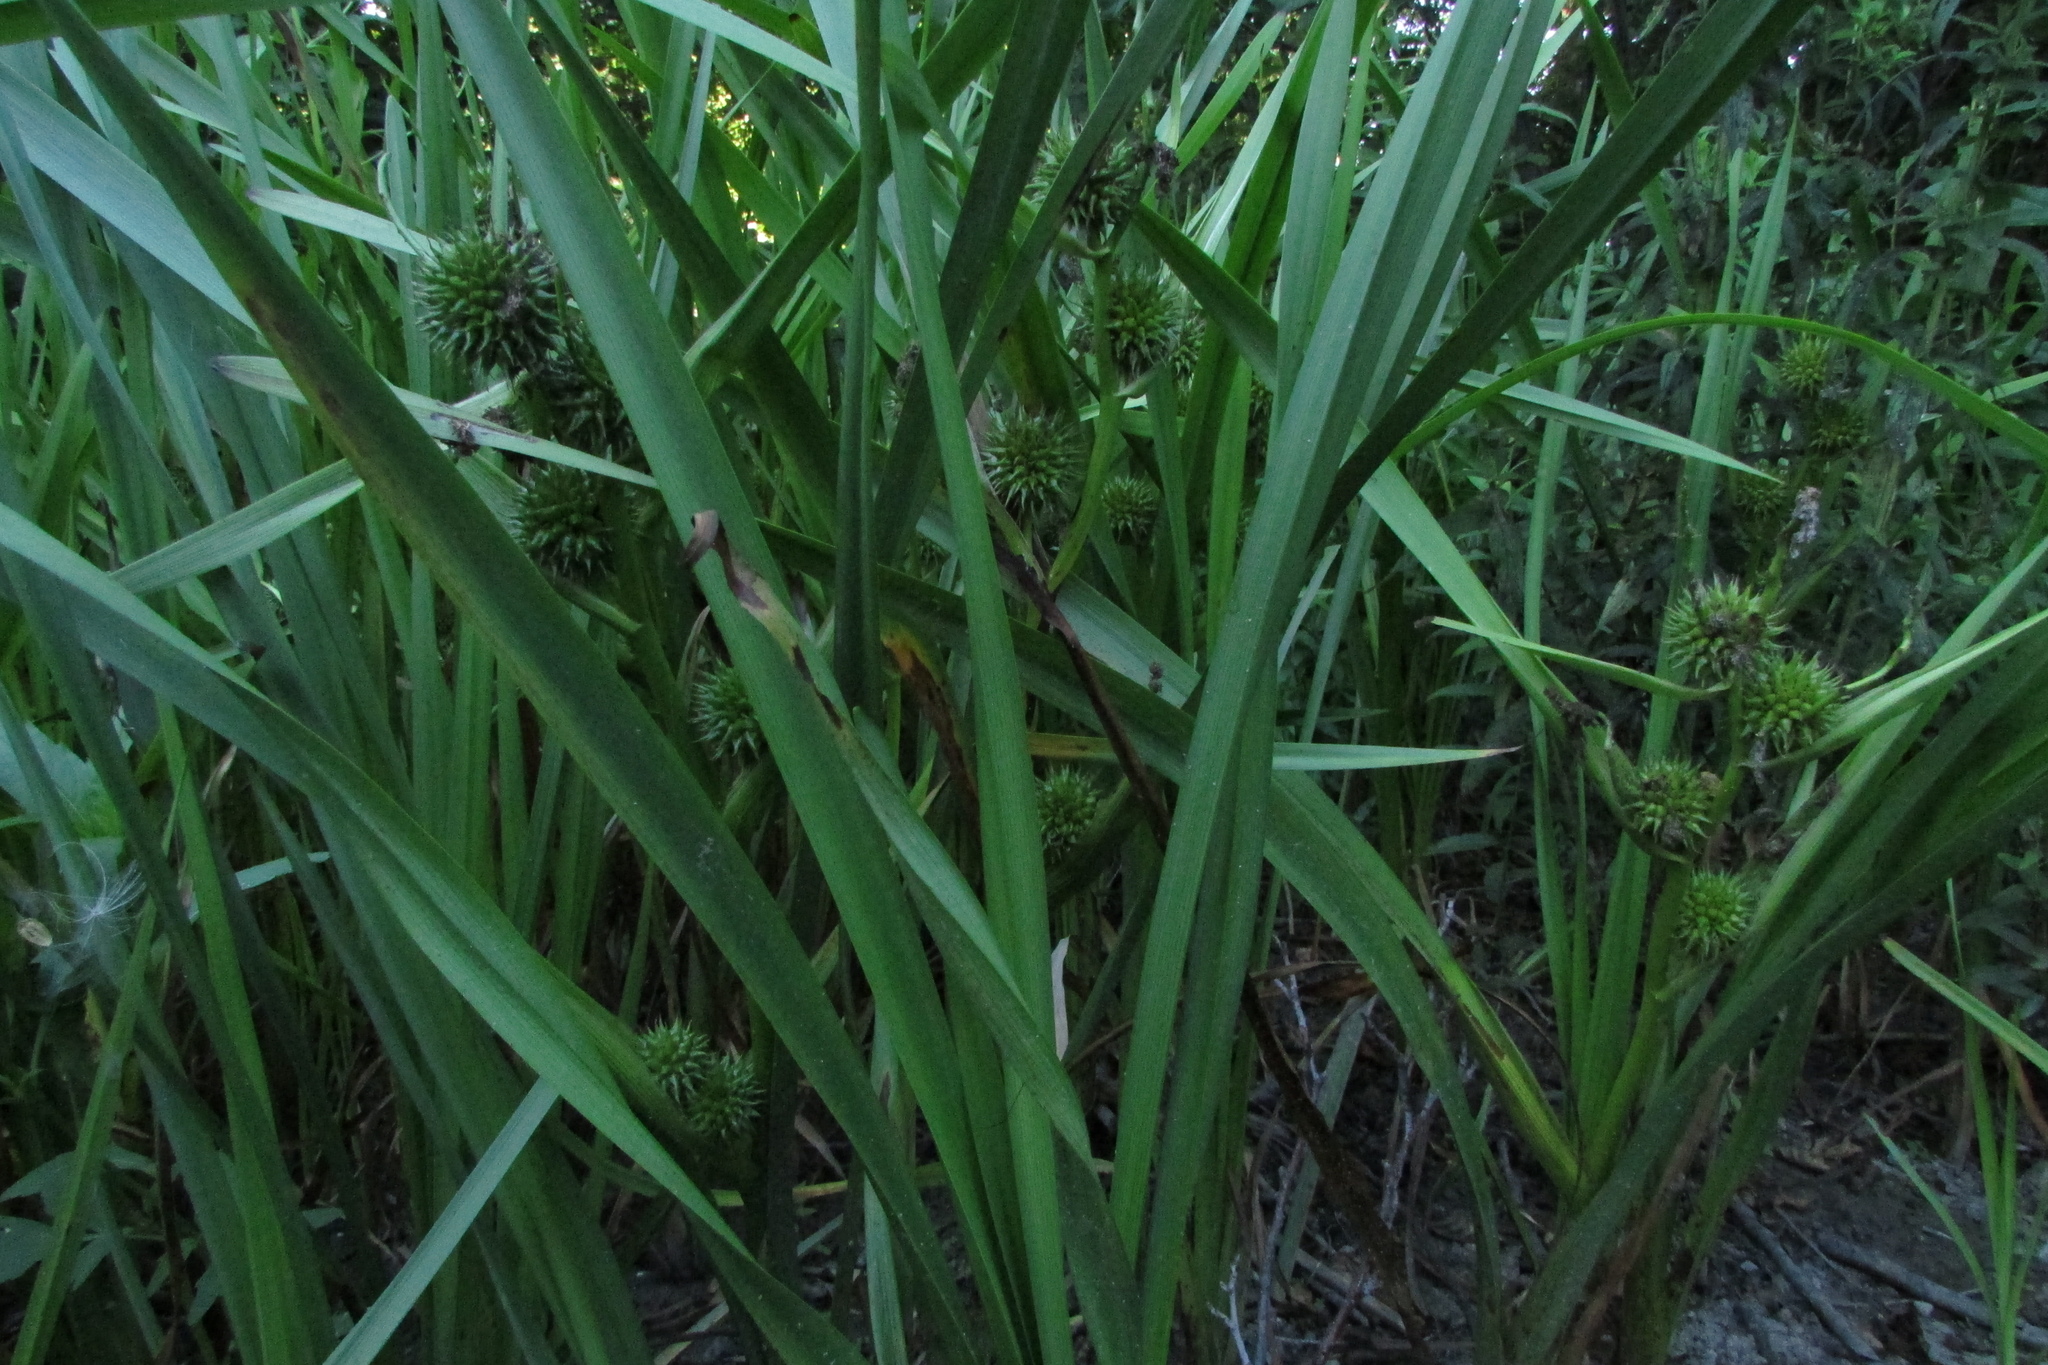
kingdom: Plantae
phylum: Tracheophyta
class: Liliopsida
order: Poales
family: Typhaceae
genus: Sparganium
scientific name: Sparganium erectum
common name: Branched bur-reed
